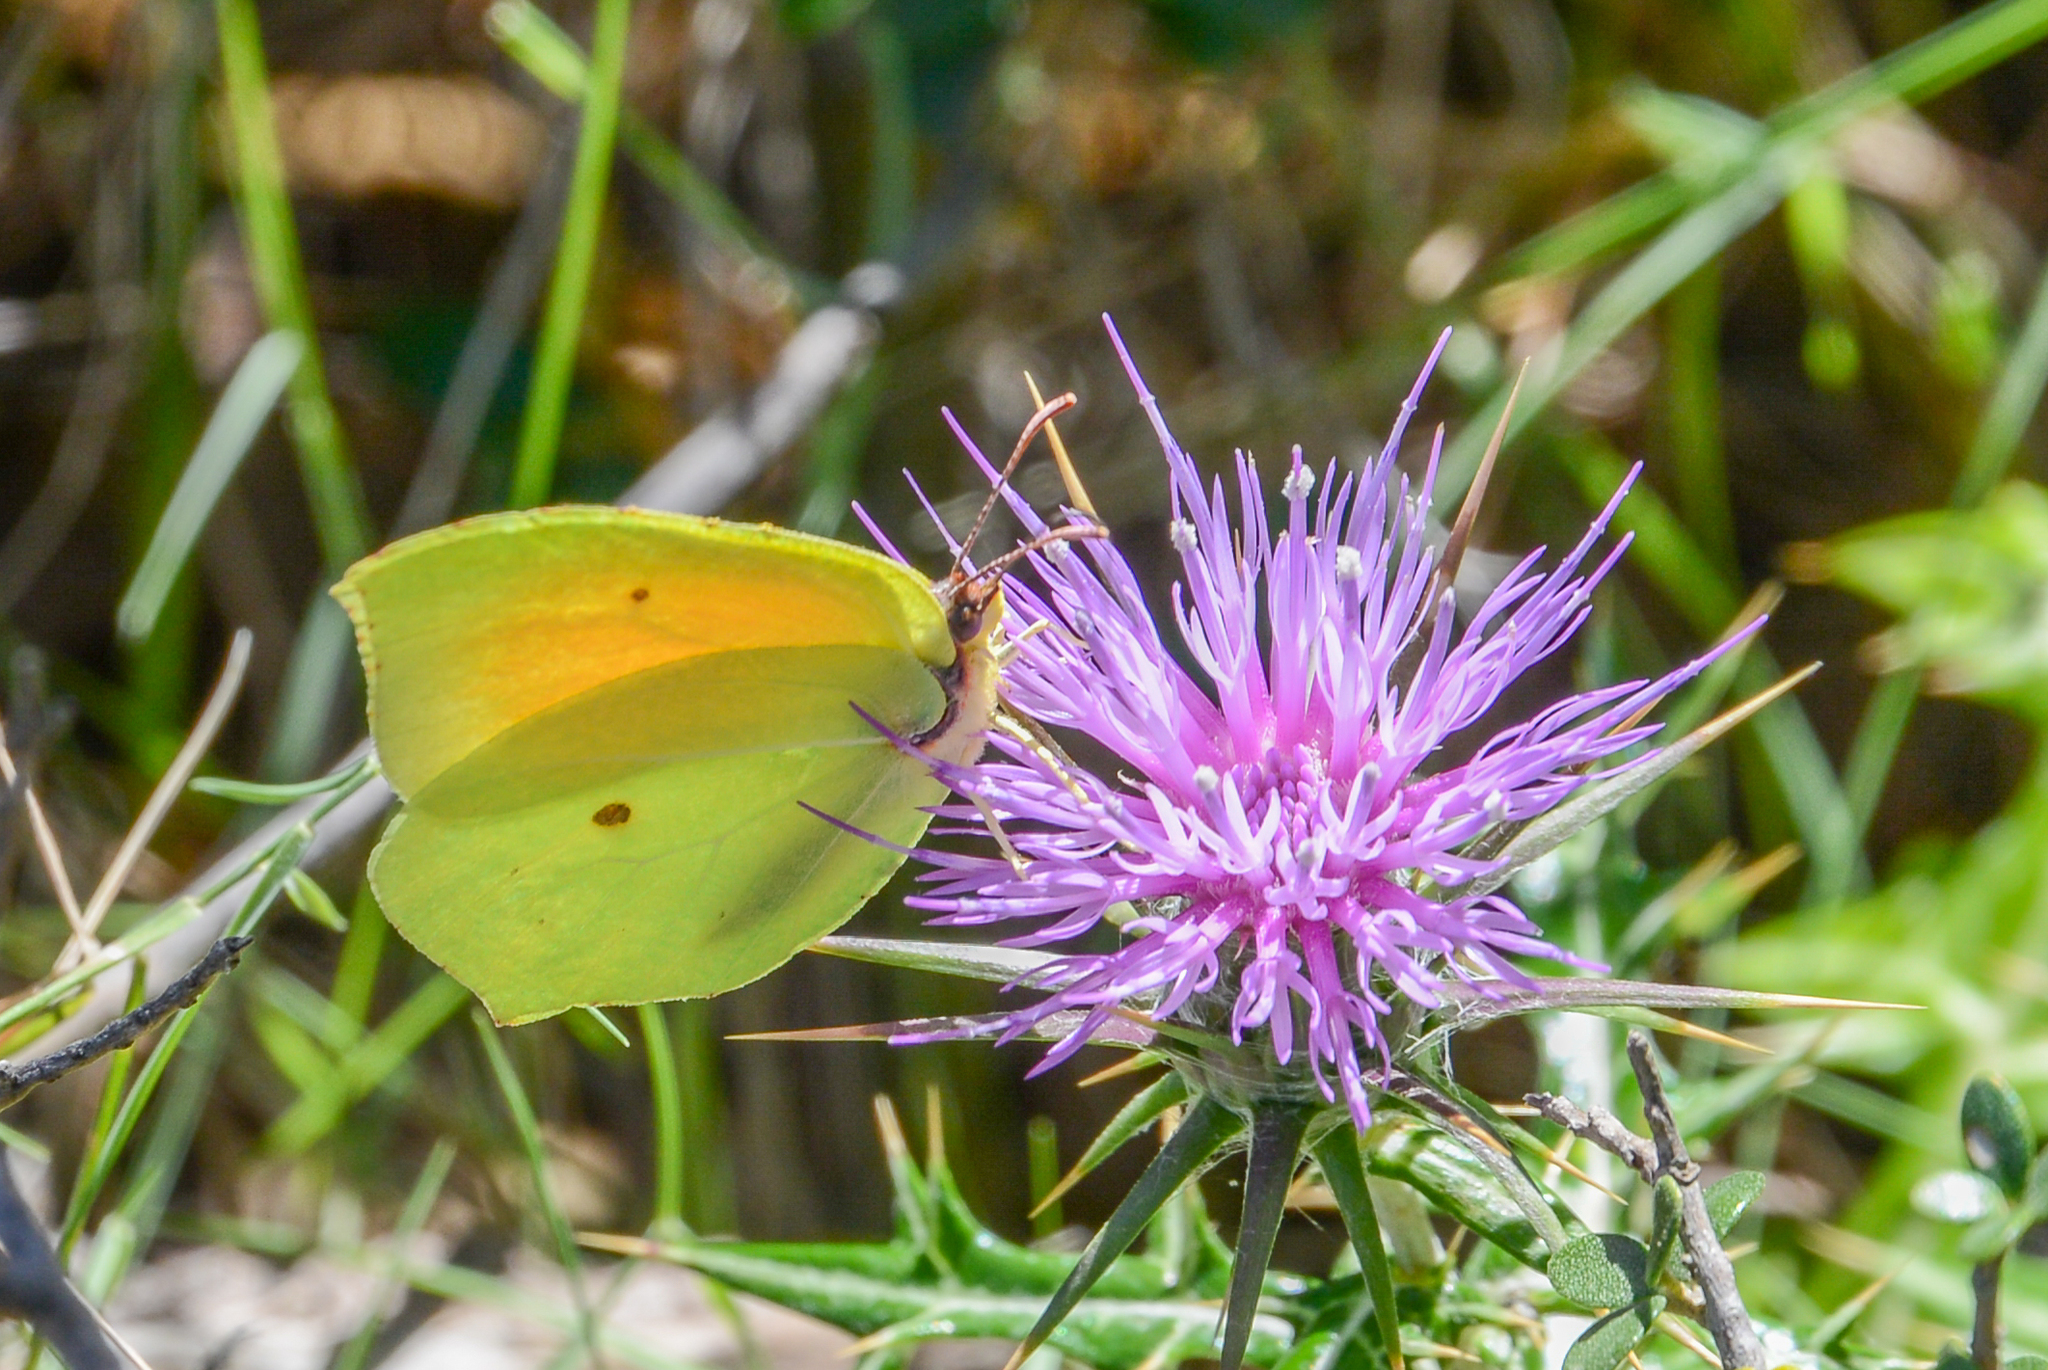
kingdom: Animalia
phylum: Arthropoda
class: Insecta
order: Lepidoptera
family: Pieridae
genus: Gonepteryx
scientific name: Gonepteryx cleopatra
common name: Cleopatra
